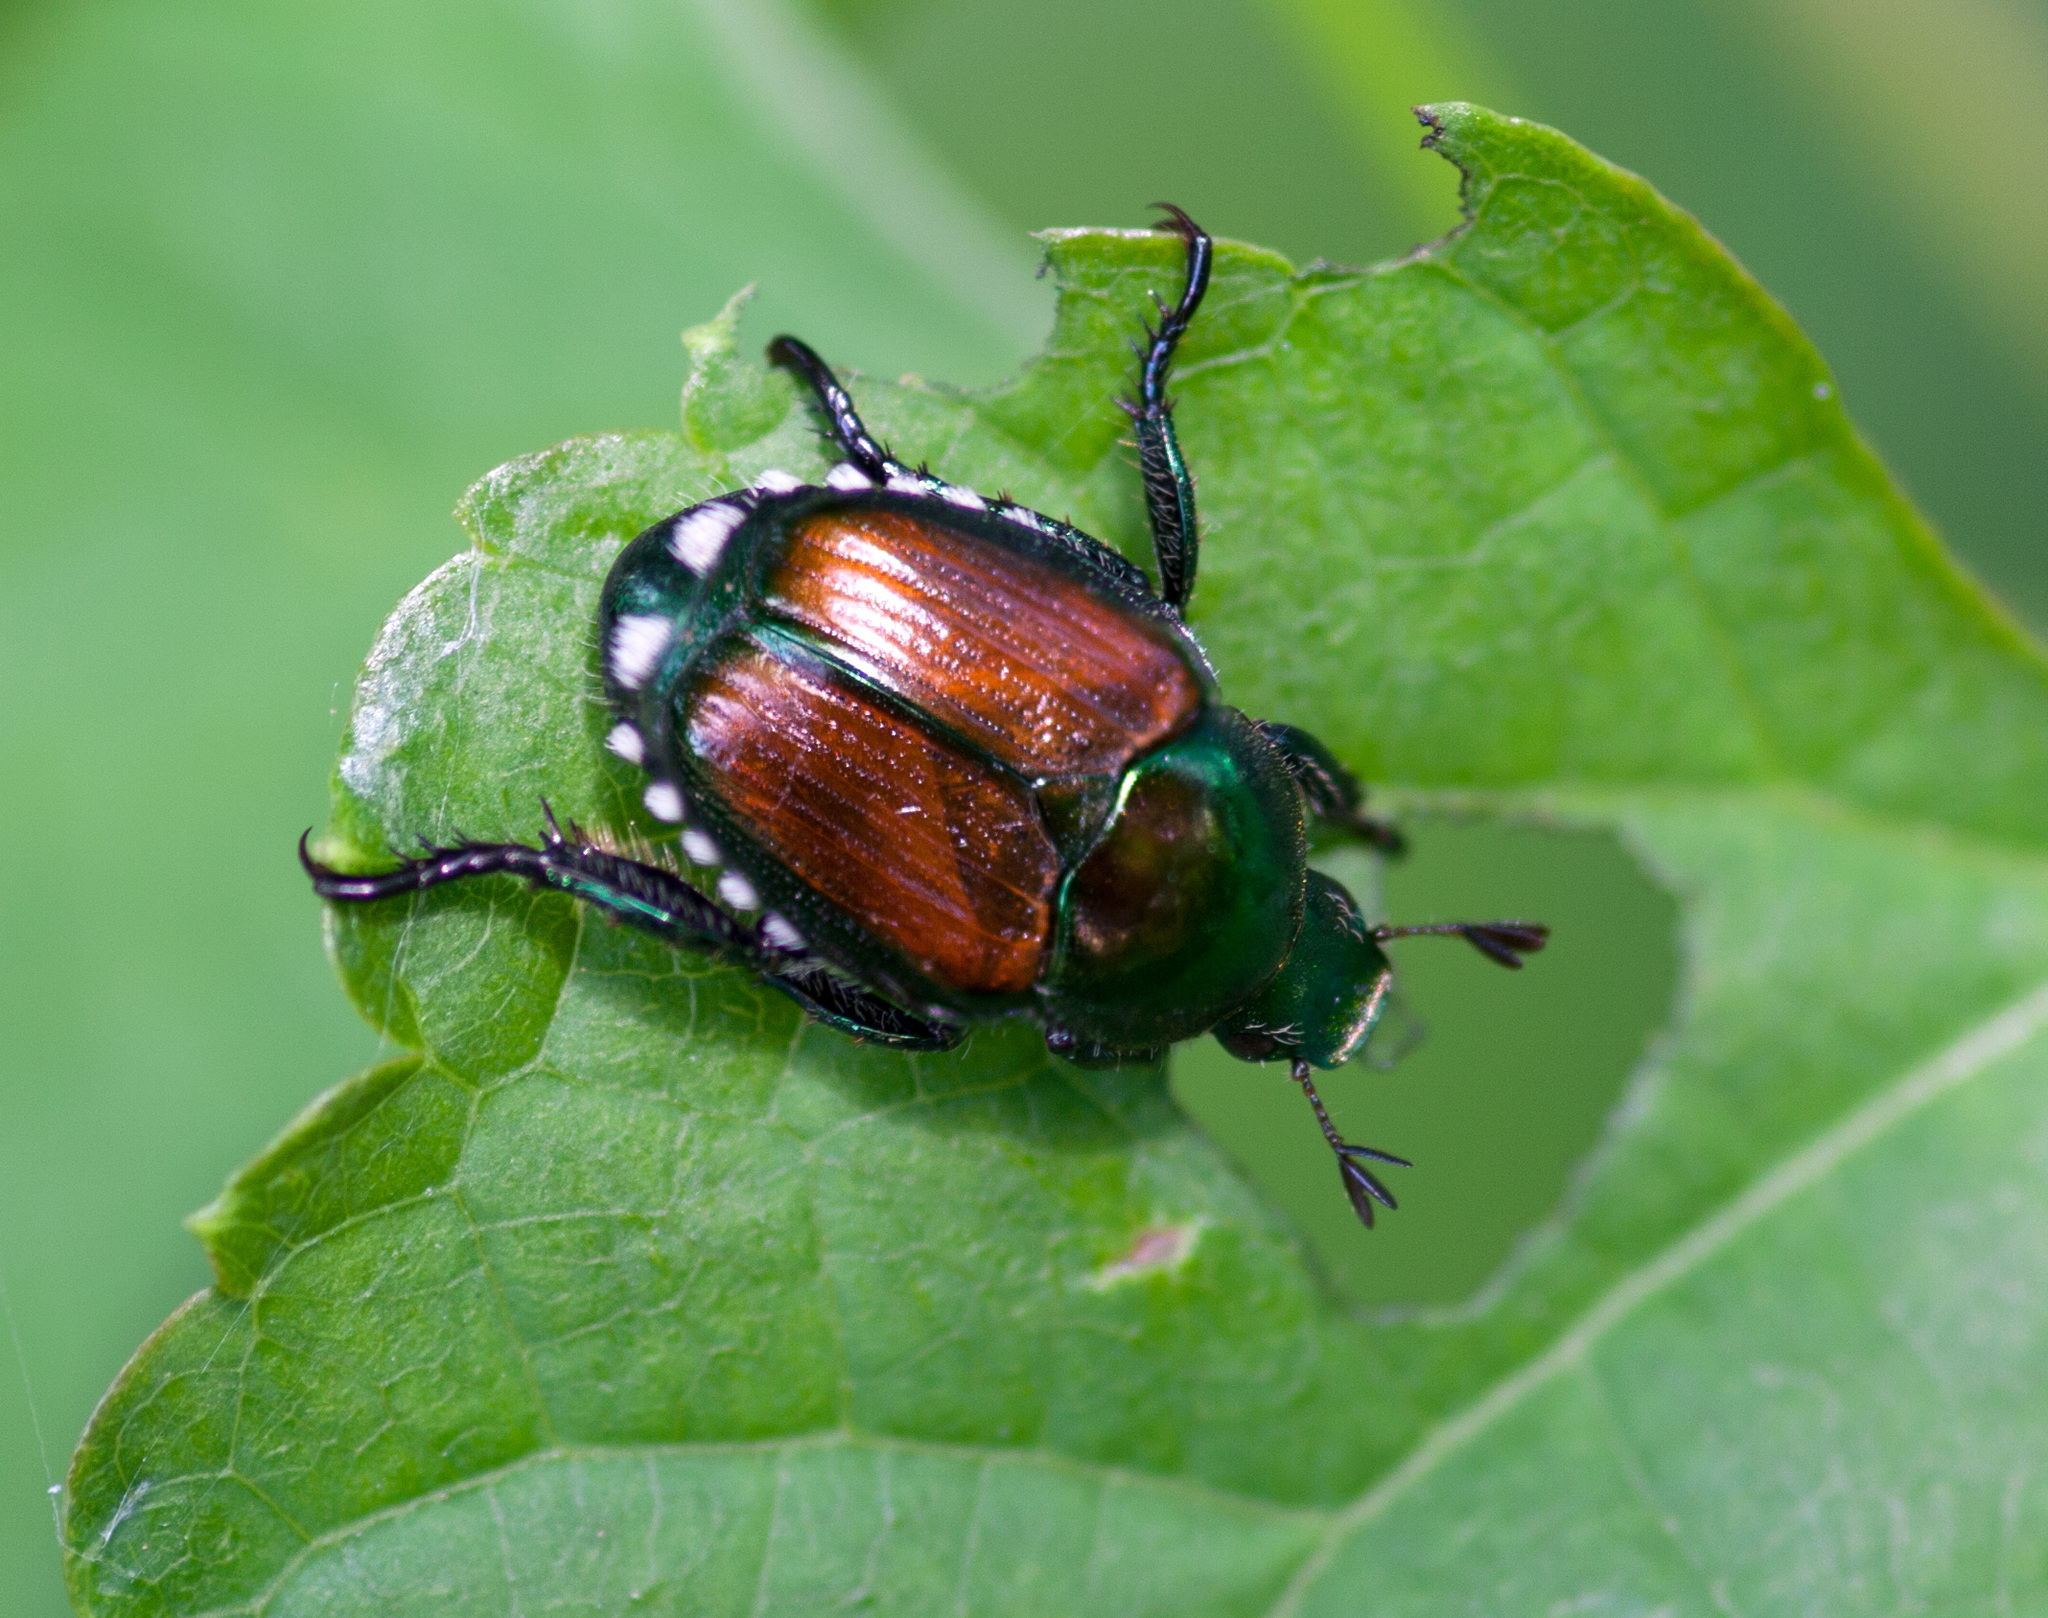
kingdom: Animalia
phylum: Arthropoda
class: Insecta
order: Coleoptera
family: Scarabaeidae
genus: Popillia
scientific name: Popillia japonica
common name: Japanese beetle
